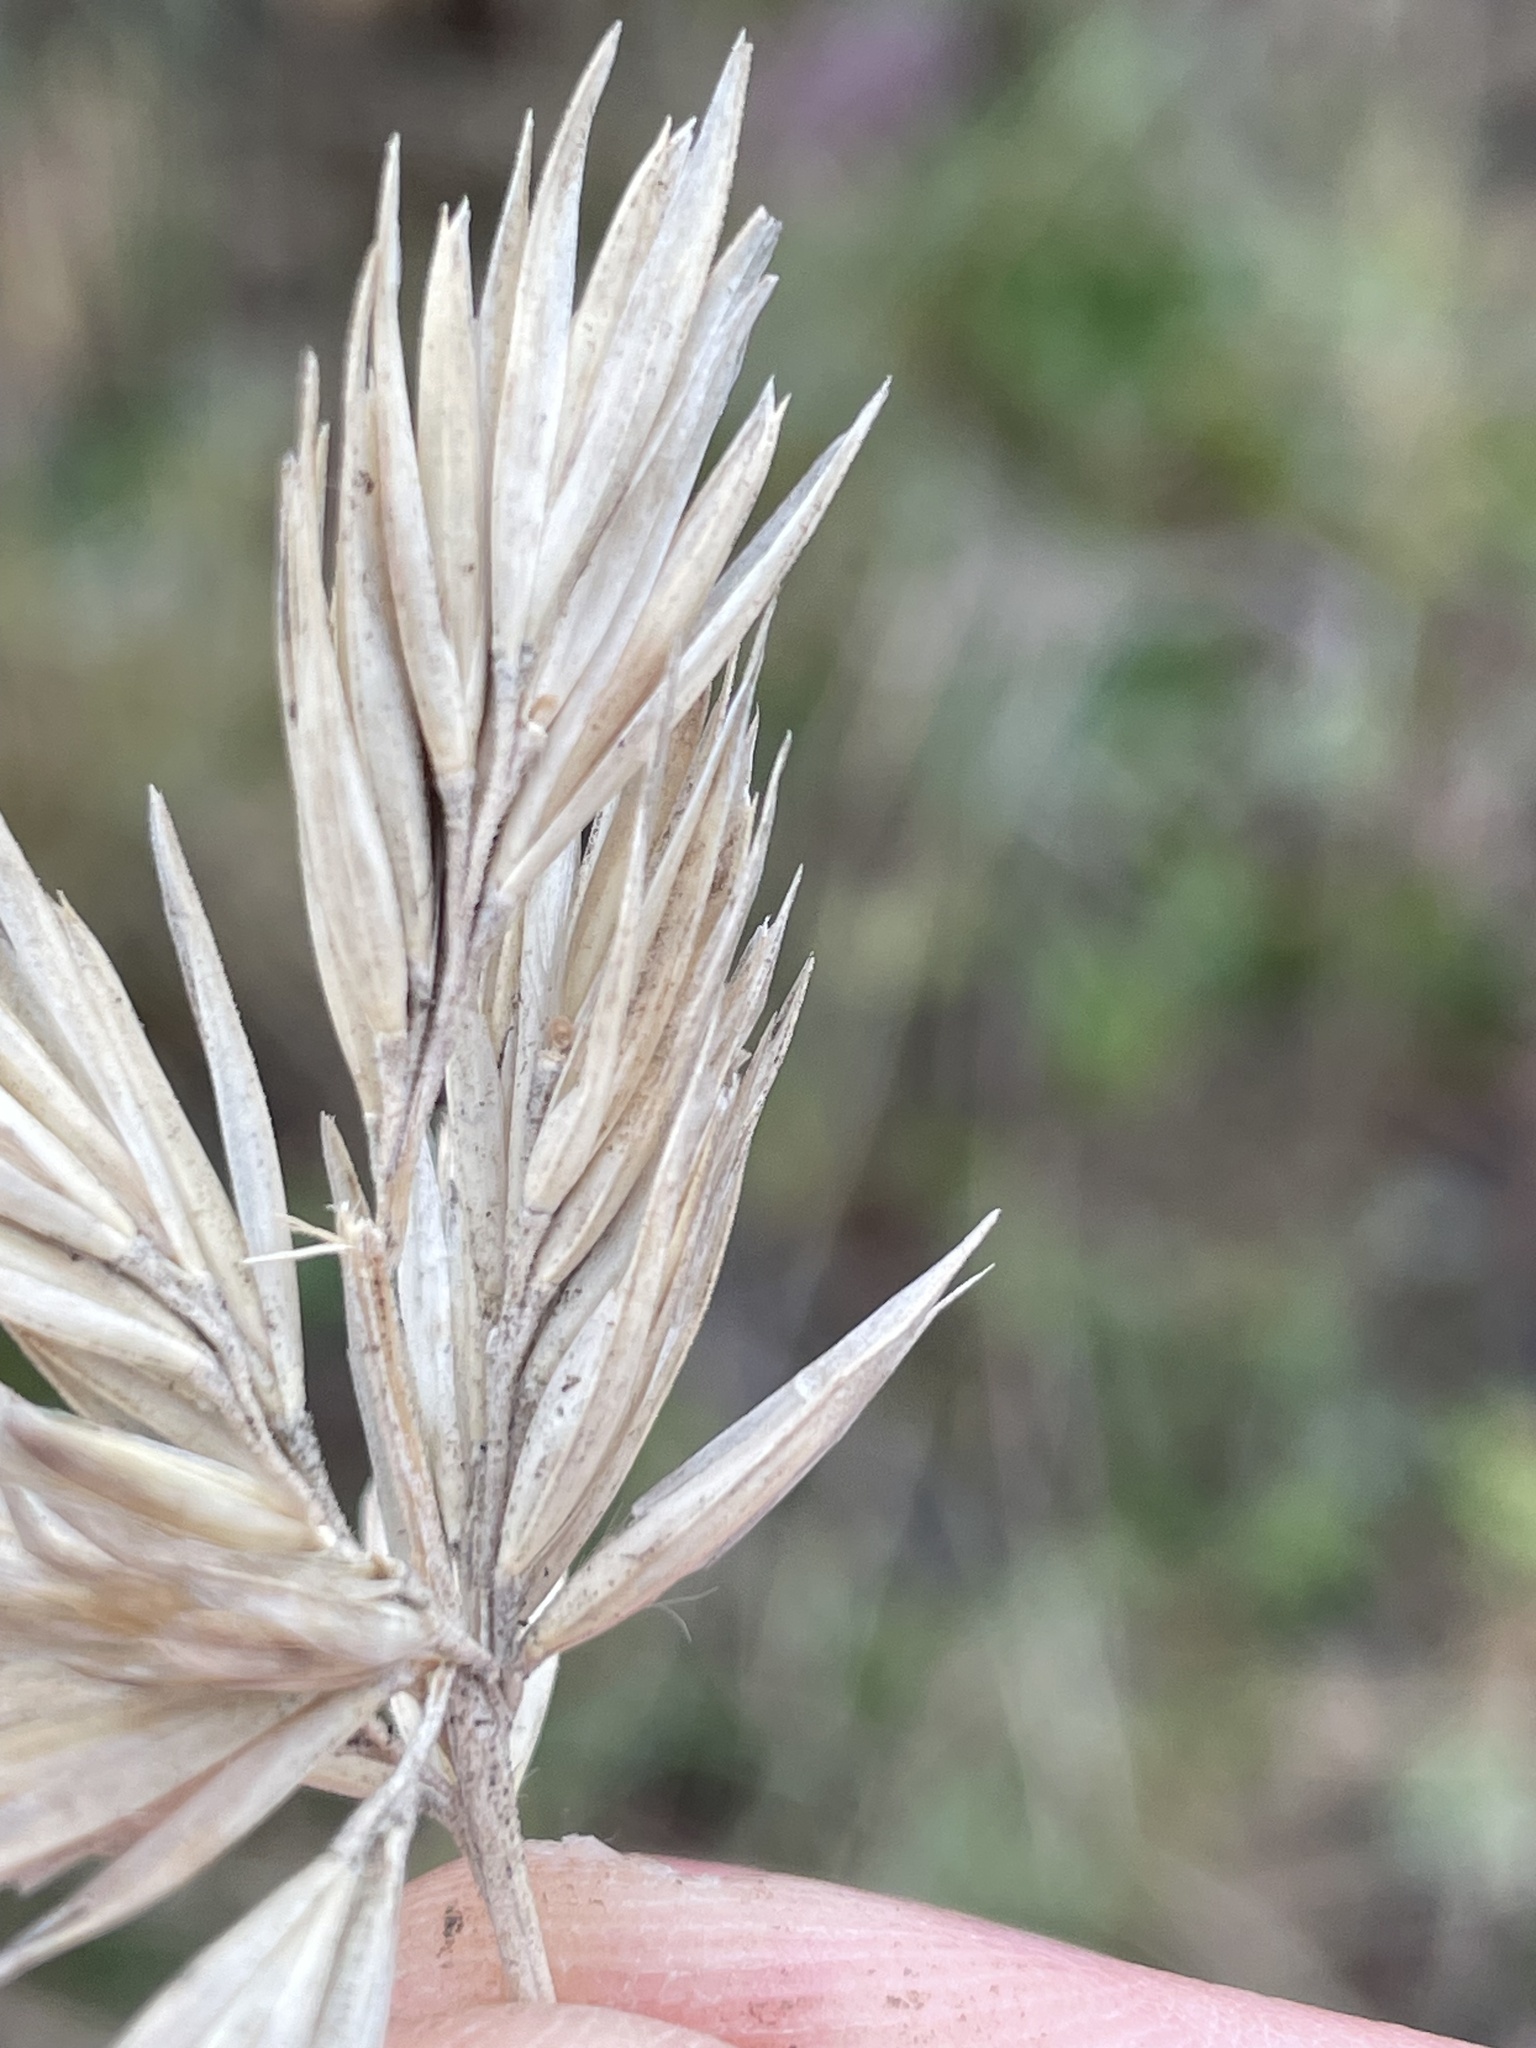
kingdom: Plantae
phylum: Tracheophyta
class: Liliopsida
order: Poales
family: Poaceae
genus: Calamagrostis
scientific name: Calamagrostis arenaria
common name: European beachgrass
